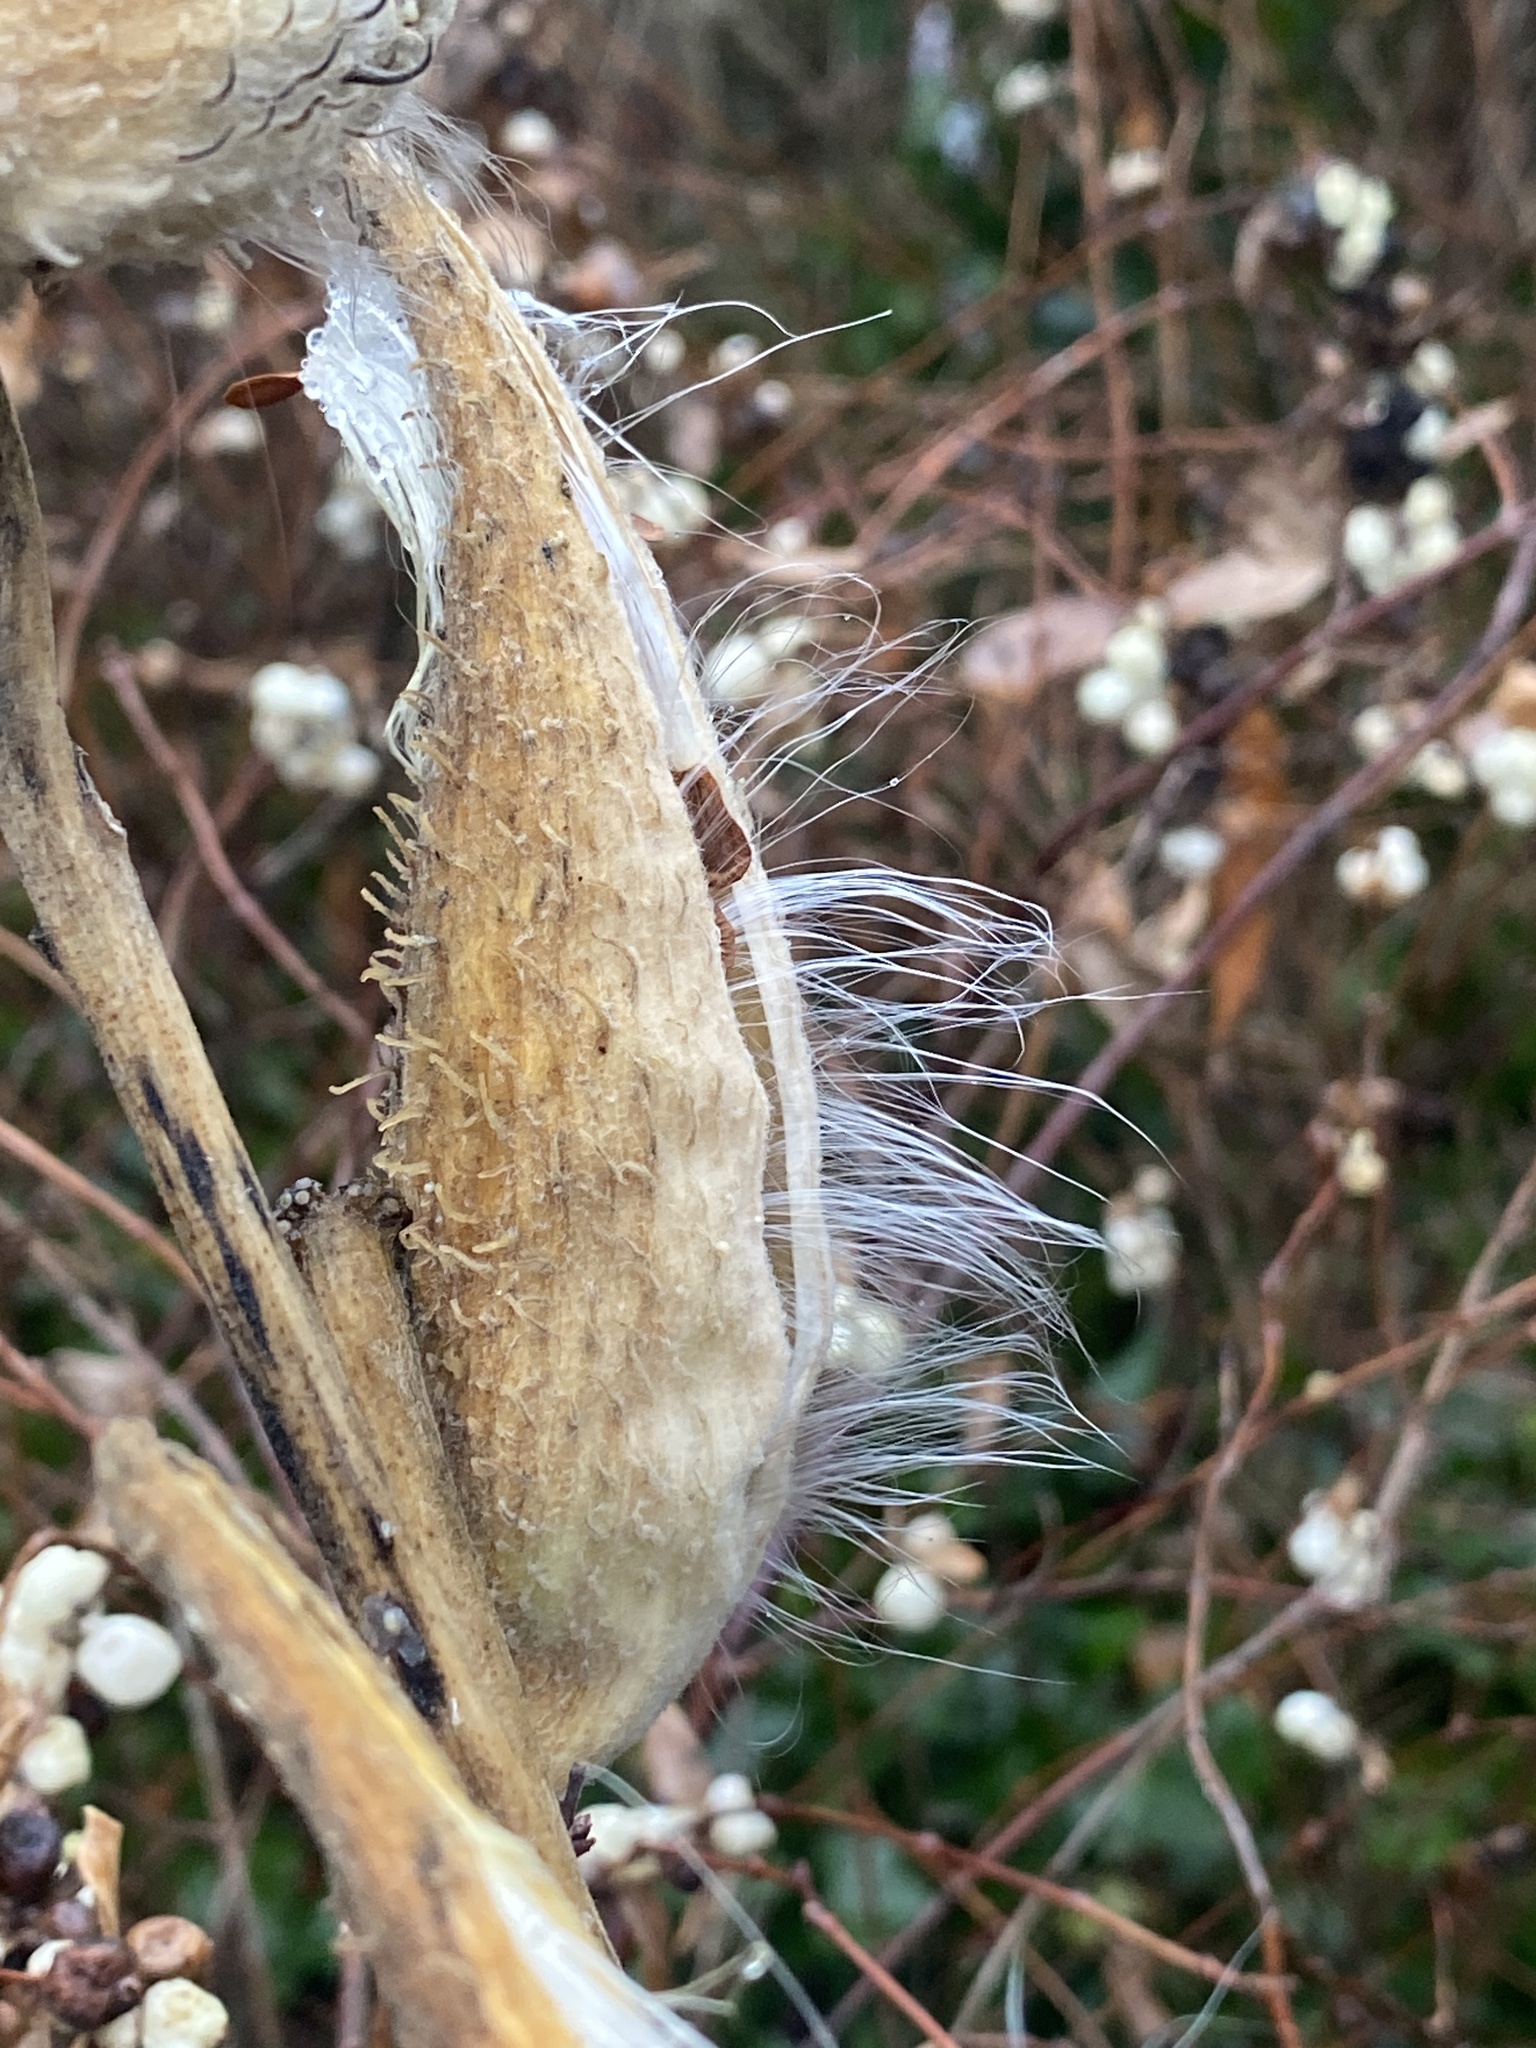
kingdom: Plantae
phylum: Tracheophyta
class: Magnoliopsida
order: Gentianales
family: Apocynaceae
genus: Asclepias
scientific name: Asclepias syriaca
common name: Common milkweed
